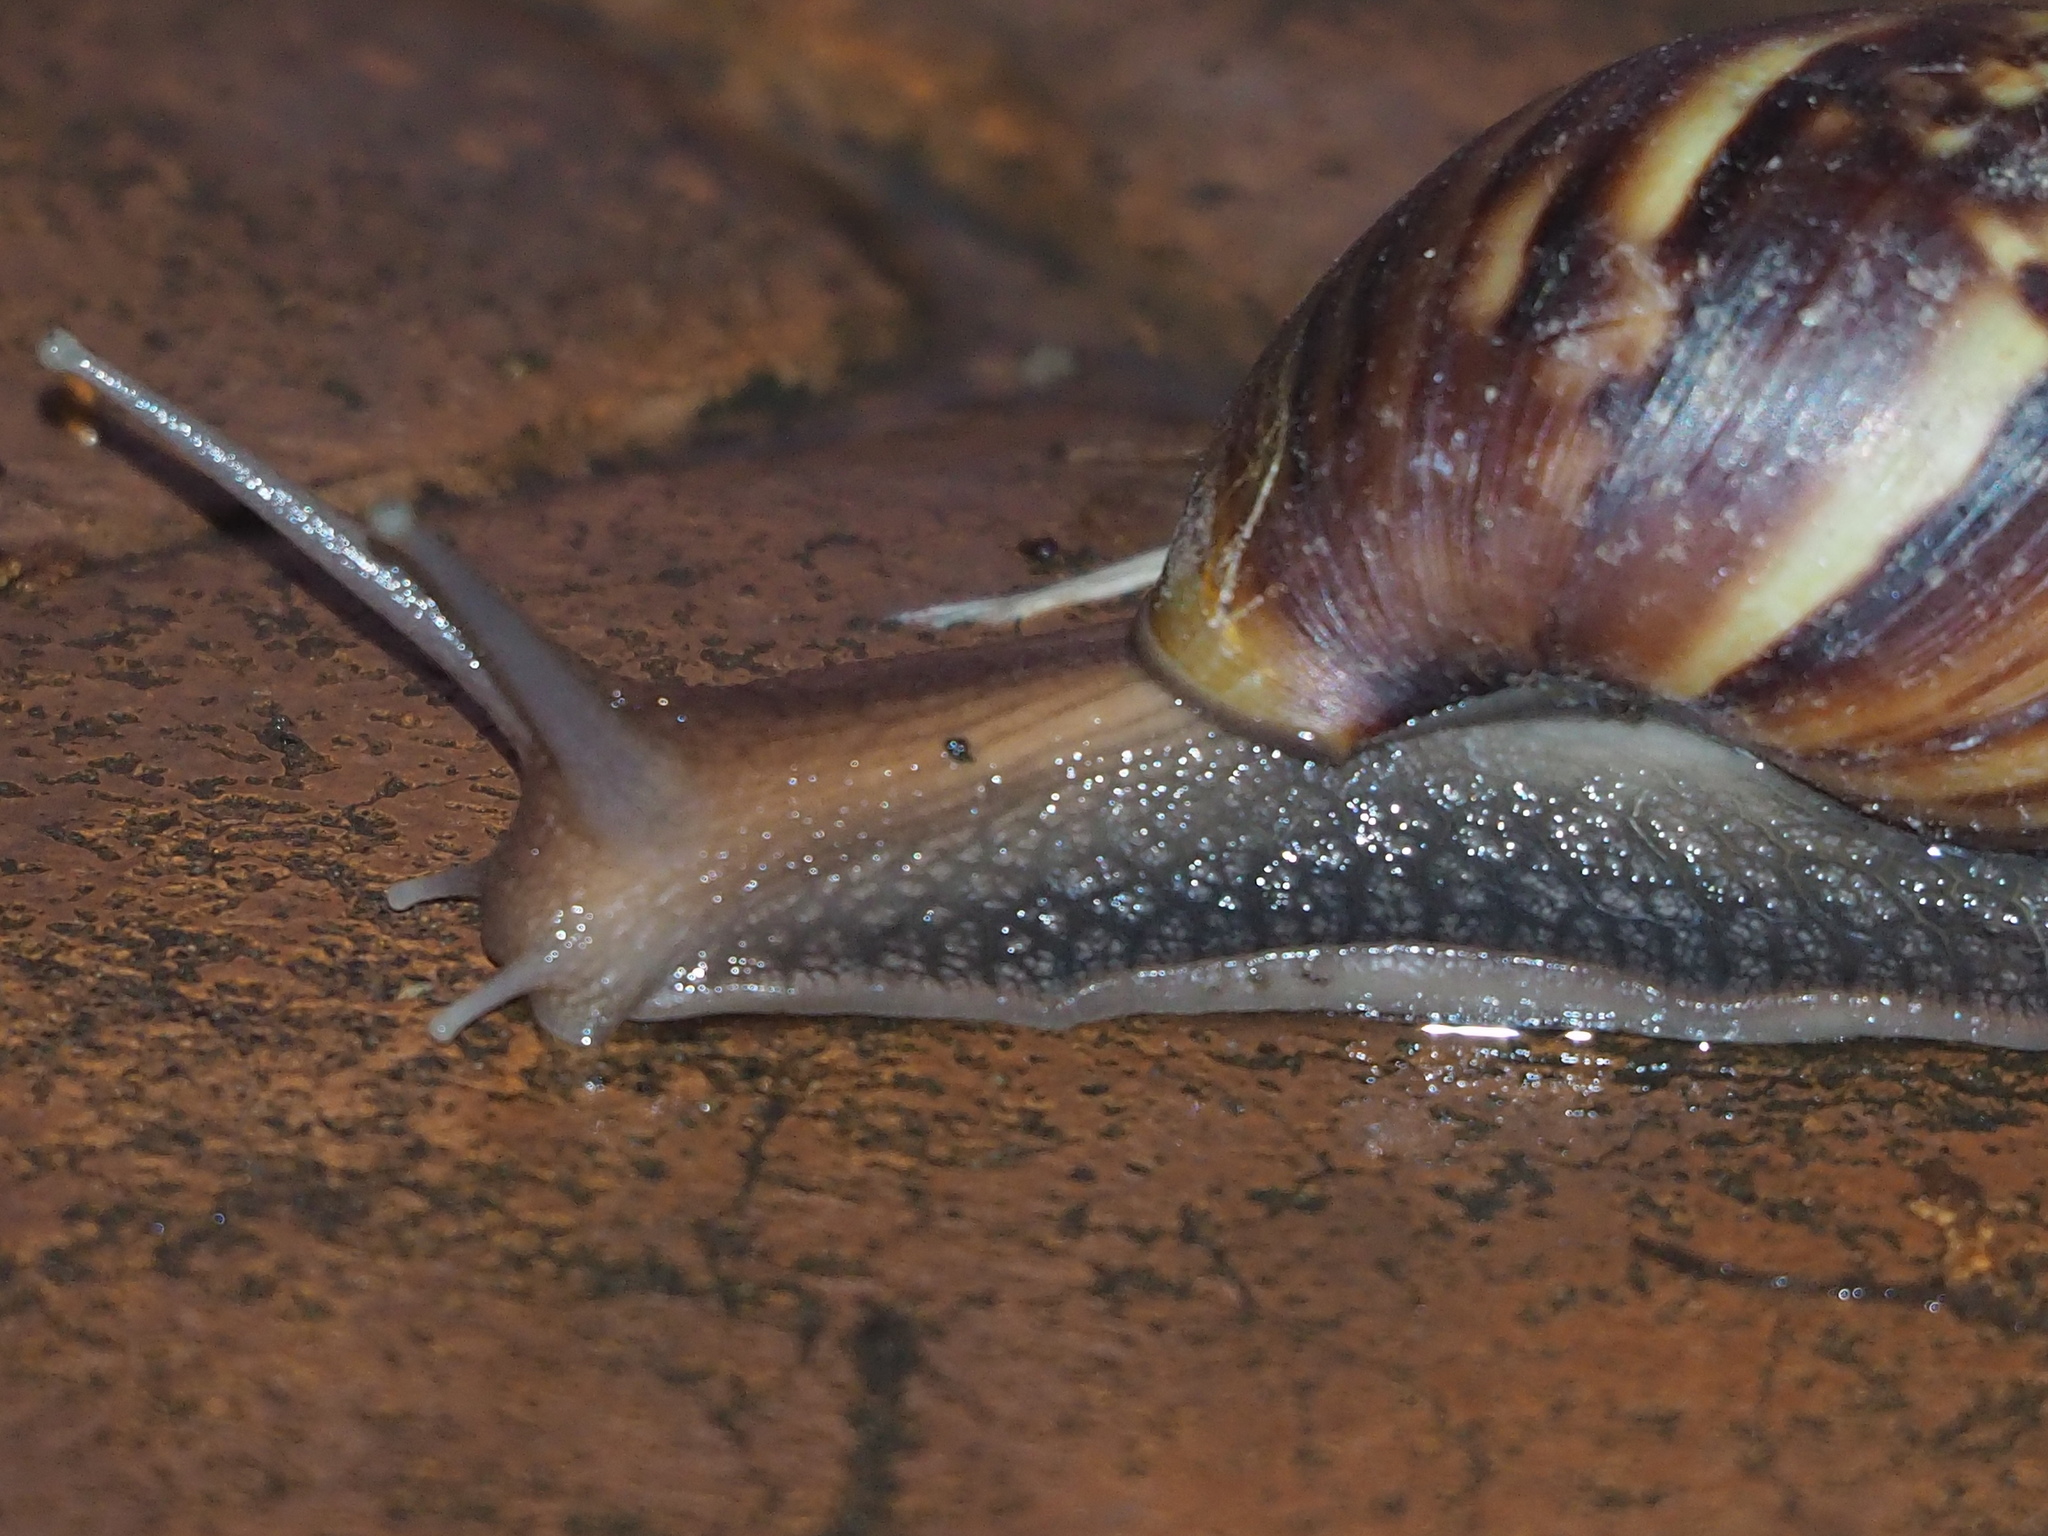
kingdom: Animalia
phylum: Mollusca
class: Gastropoda
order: Stylommatophora
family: Achatinidae
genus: Lissachatina
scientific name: Lissachatina fulica
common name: Giant african snail
